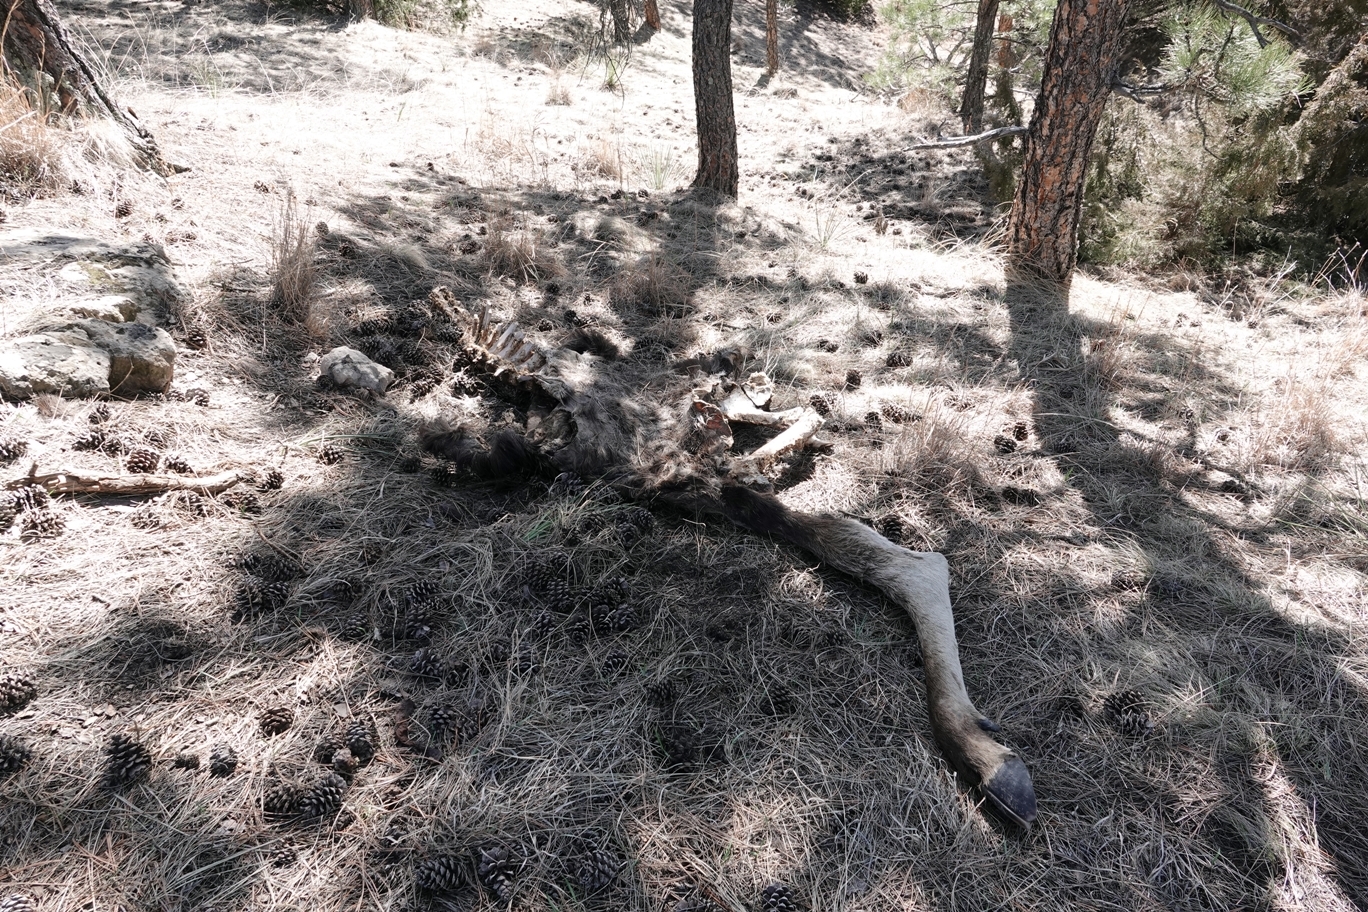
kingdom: Animalia
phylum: Chordata
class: Mammalia
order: Artiodactyla
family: Cervidae
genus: Alces
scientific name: Alces alces
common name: Moose
